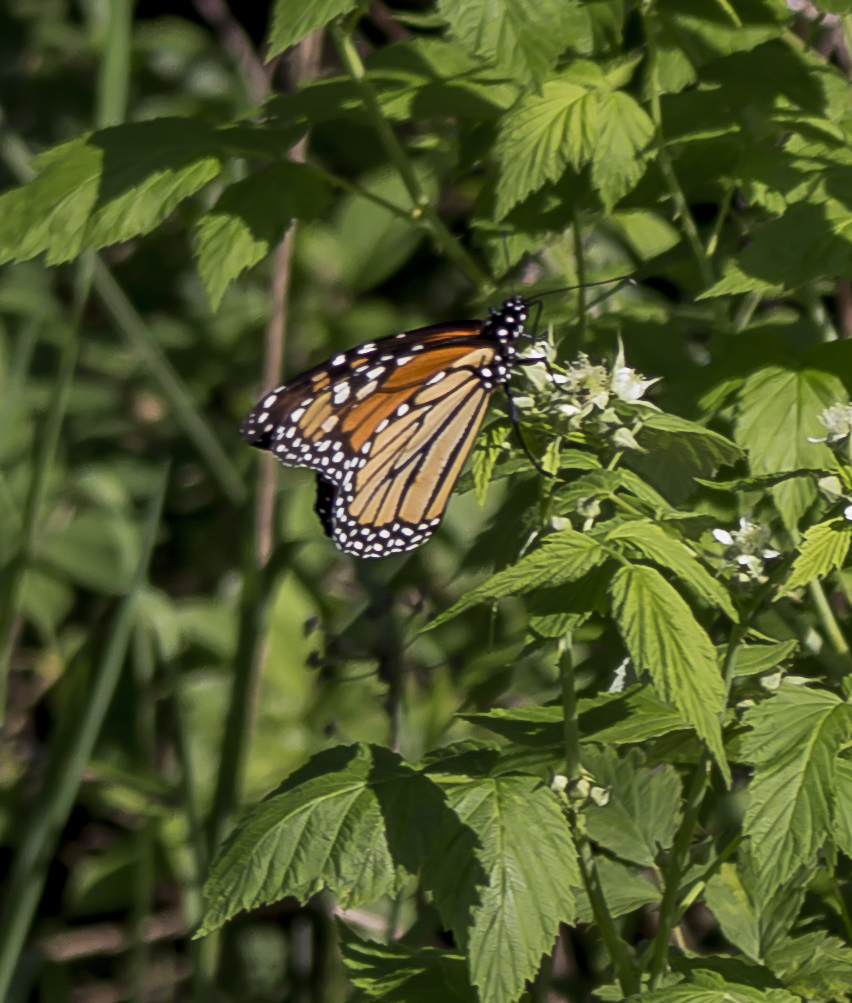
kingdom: Animalia
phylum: Arthropoda
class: Insecta
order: Lepidoptera
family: Nymphalidae
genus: Danaus
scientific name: Danaus plexippus
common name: Monarch
